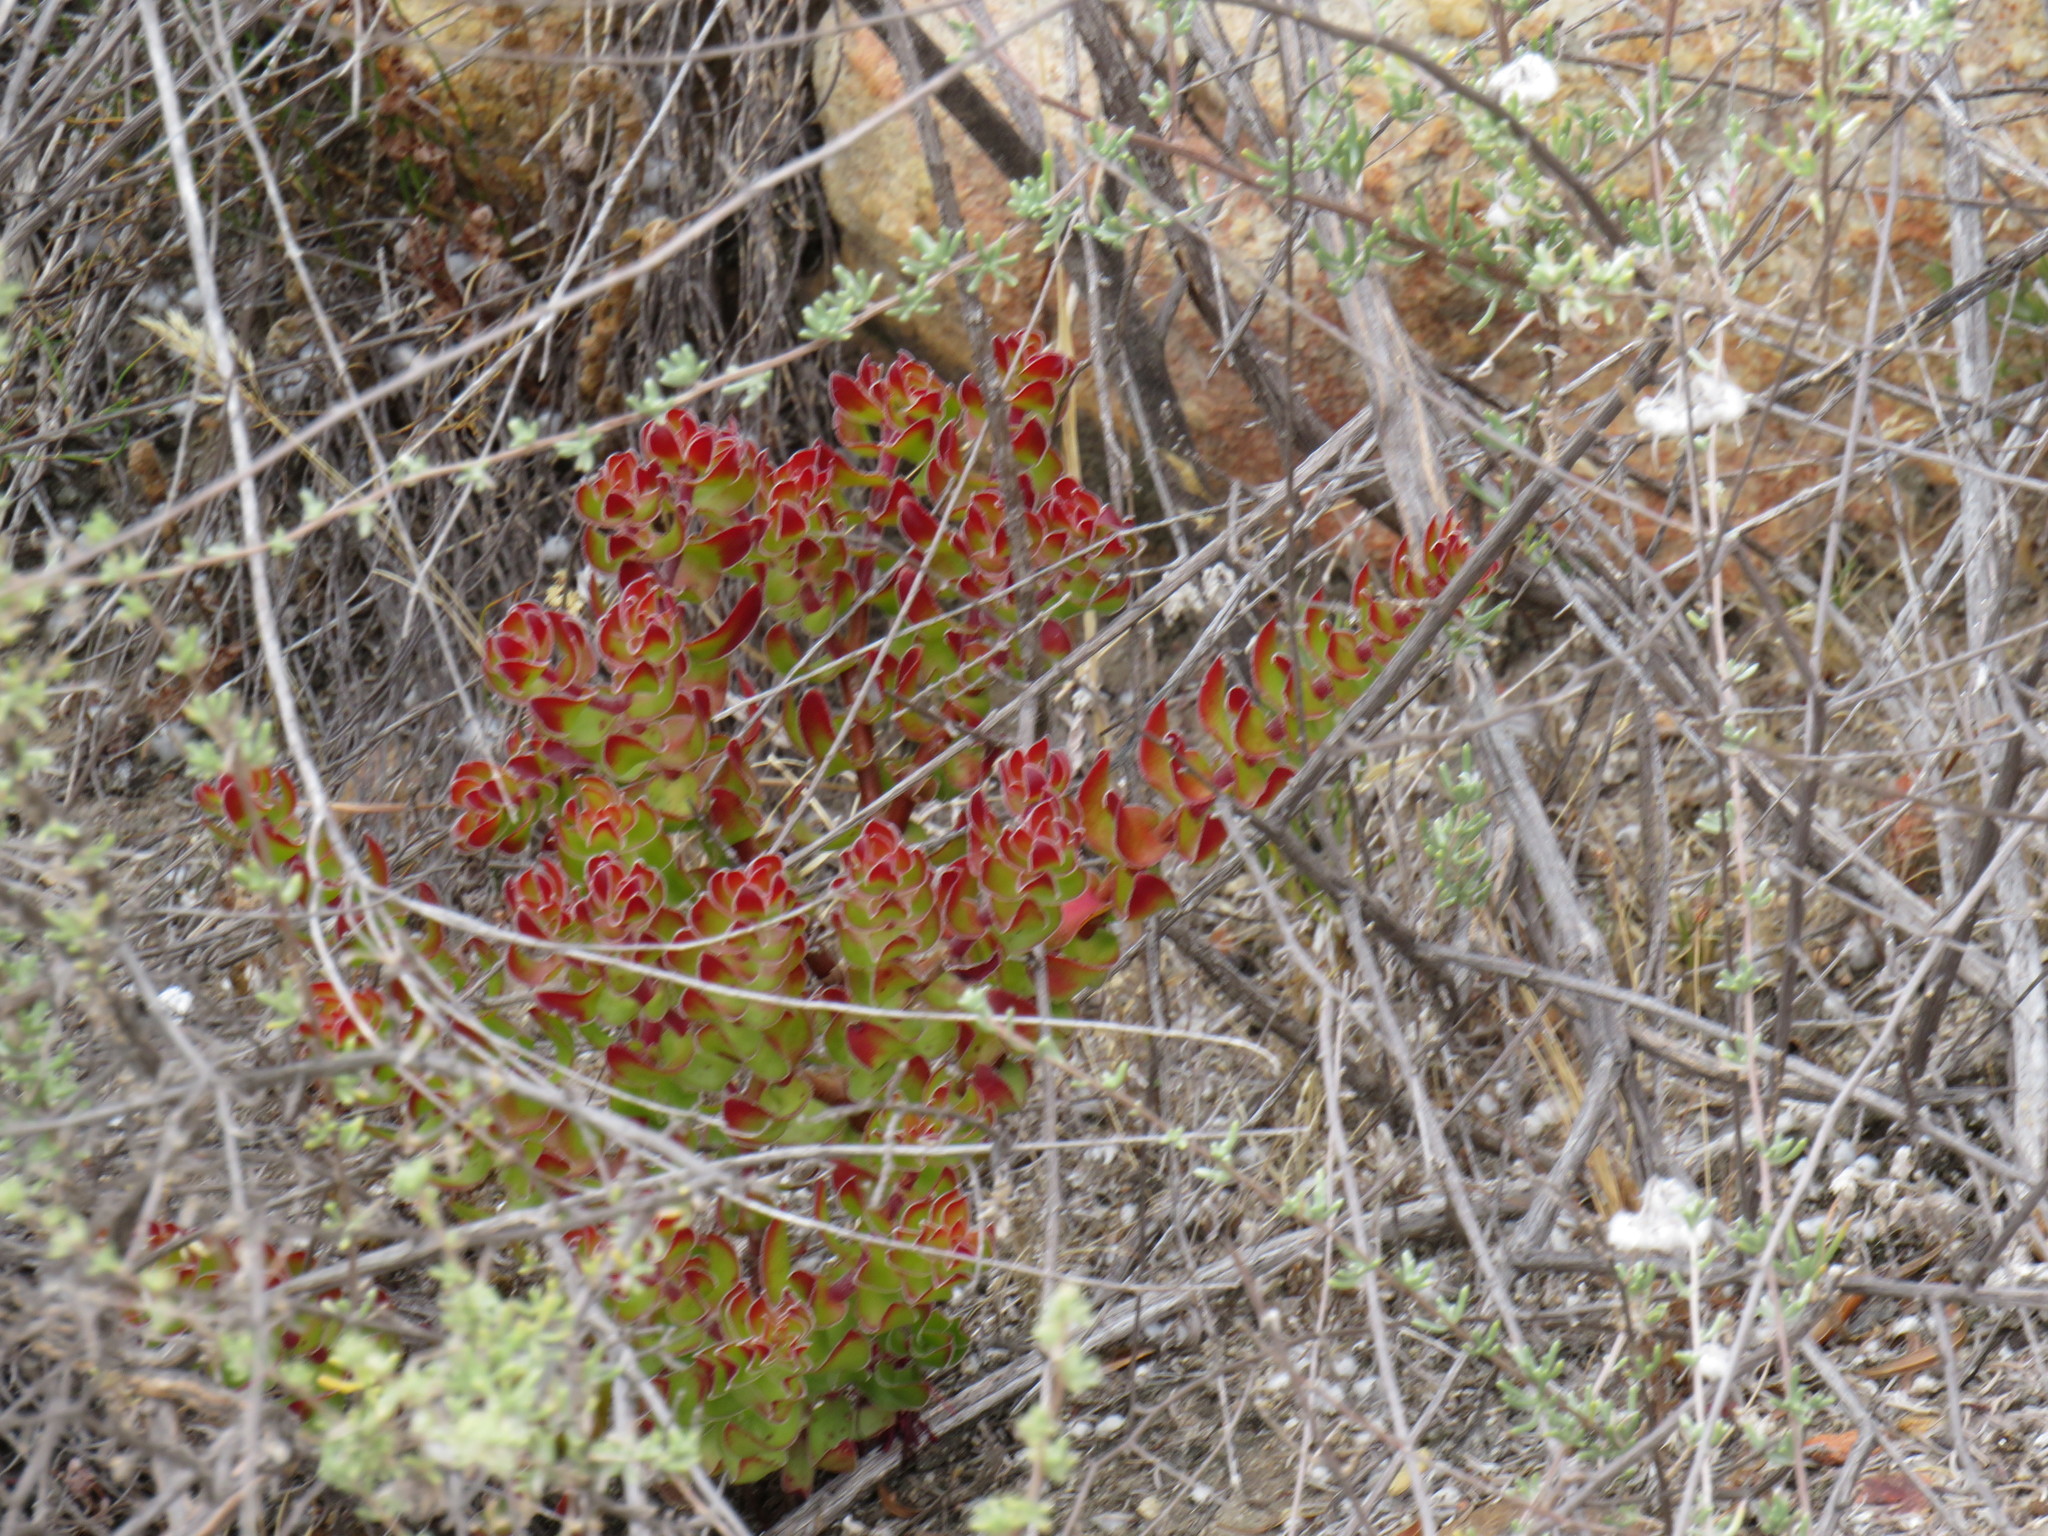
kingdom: Plantae
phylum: Tracheophyta
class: Magnoliopsida
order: Saxifragales
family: Crassulaceae
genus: Crassula
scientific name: Crassula undulata
